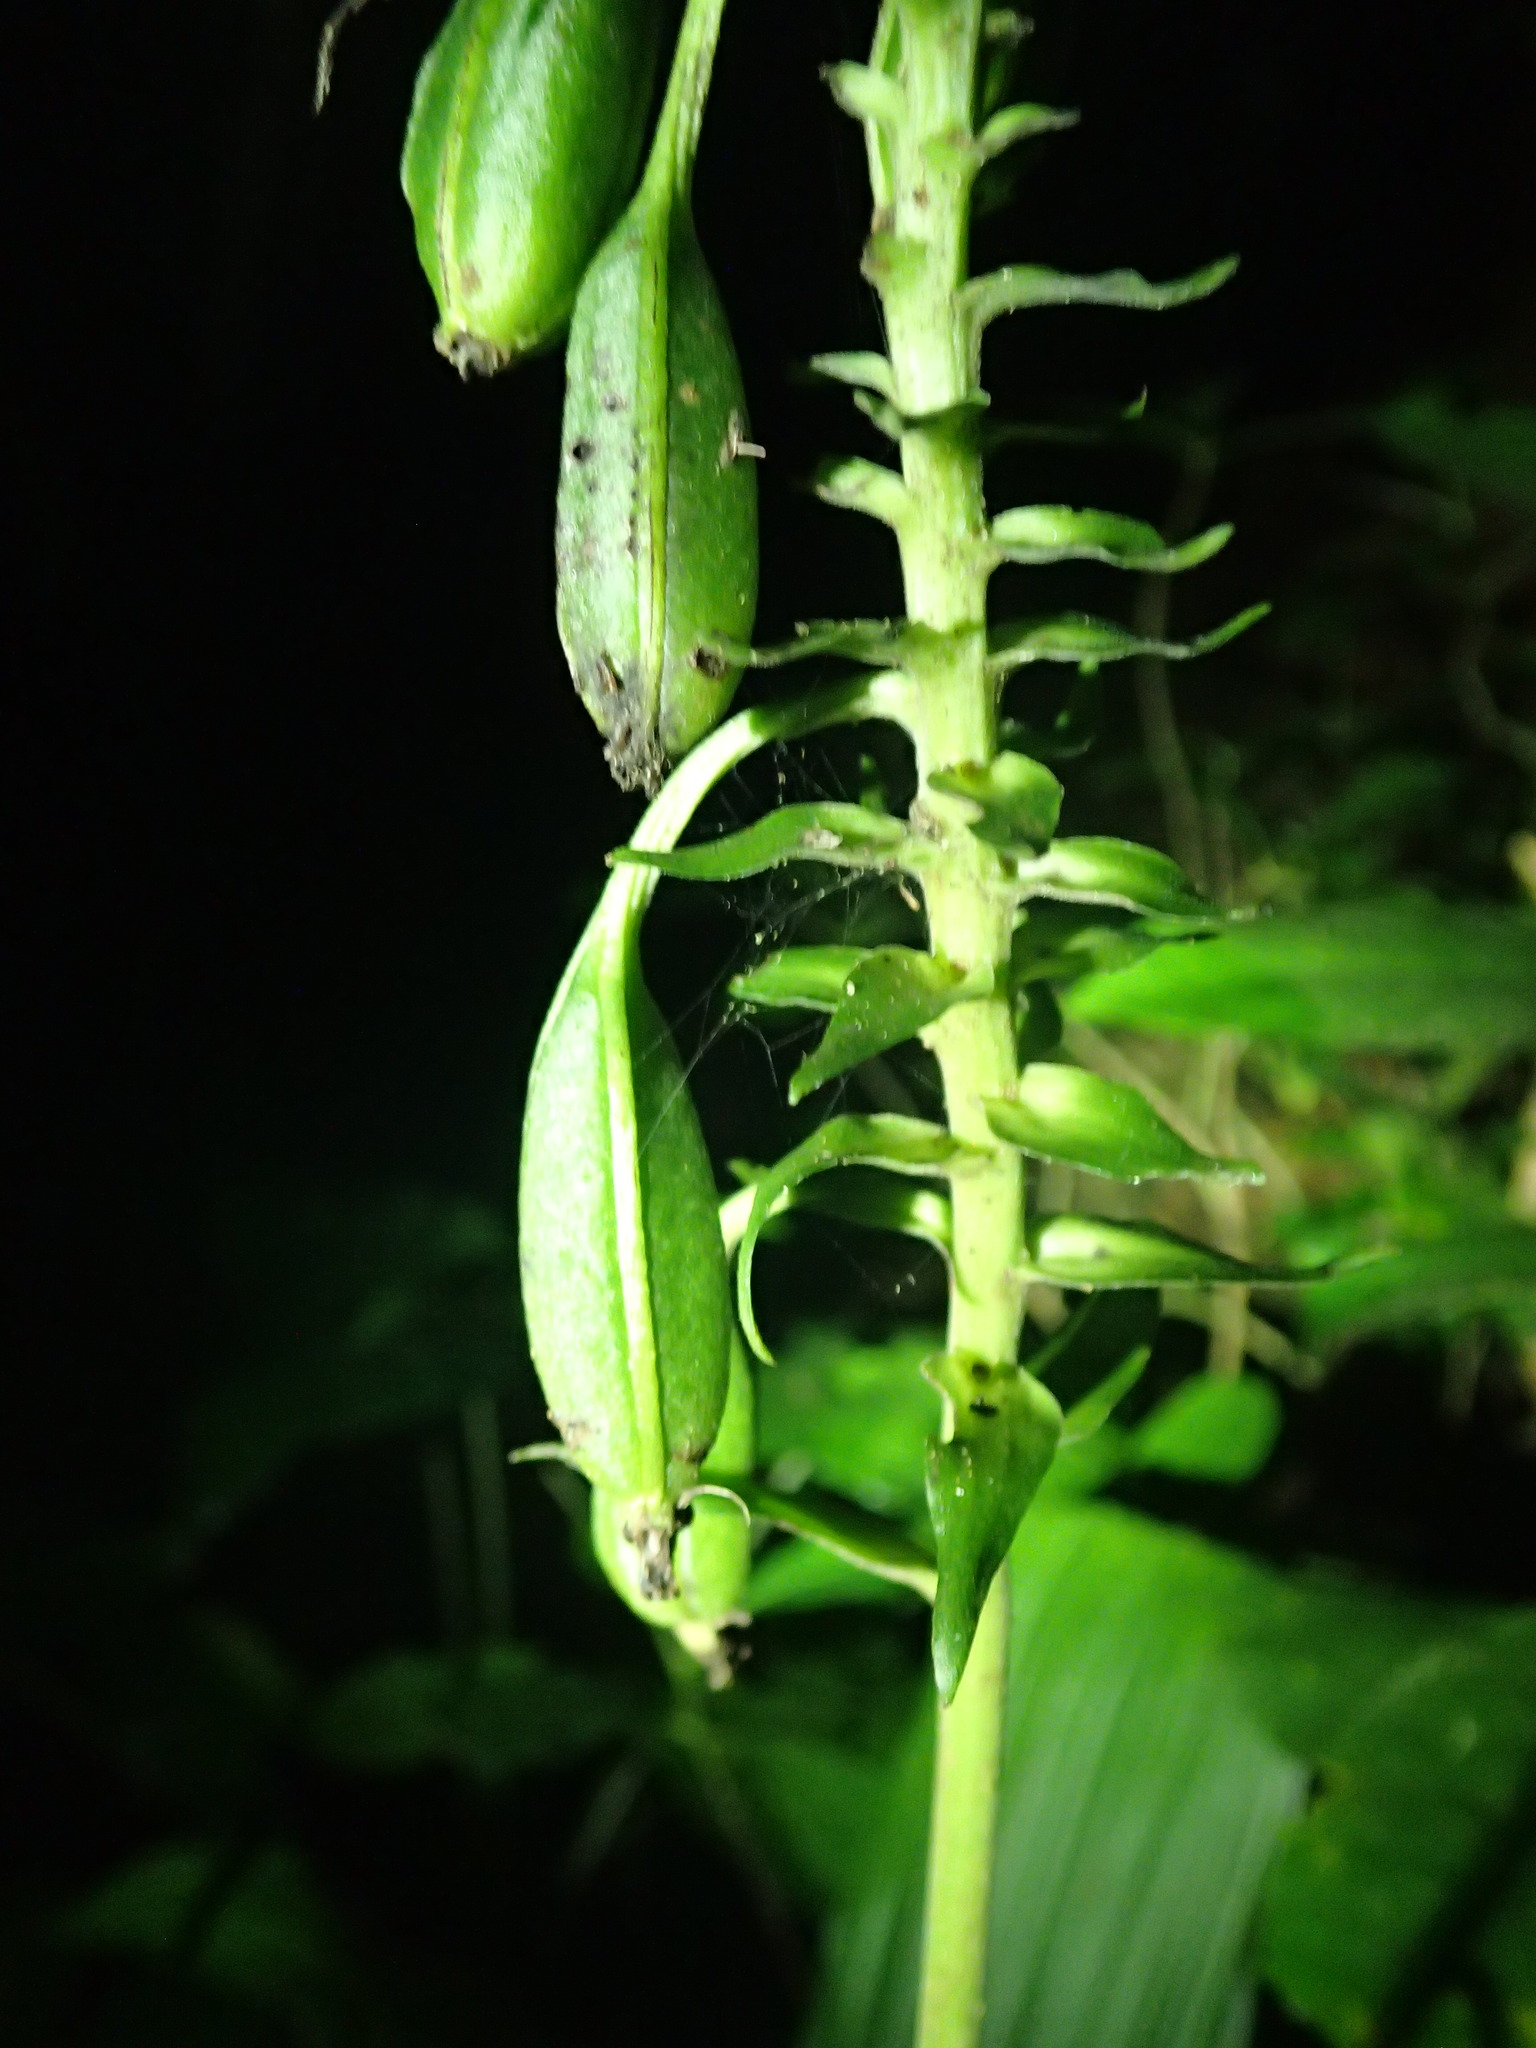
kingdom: Plantae
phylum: Tracheophyta
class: Liliopsida
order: Asparagales
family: Orchidaceae
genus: Calanthe
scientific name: Calanthe triplicata
